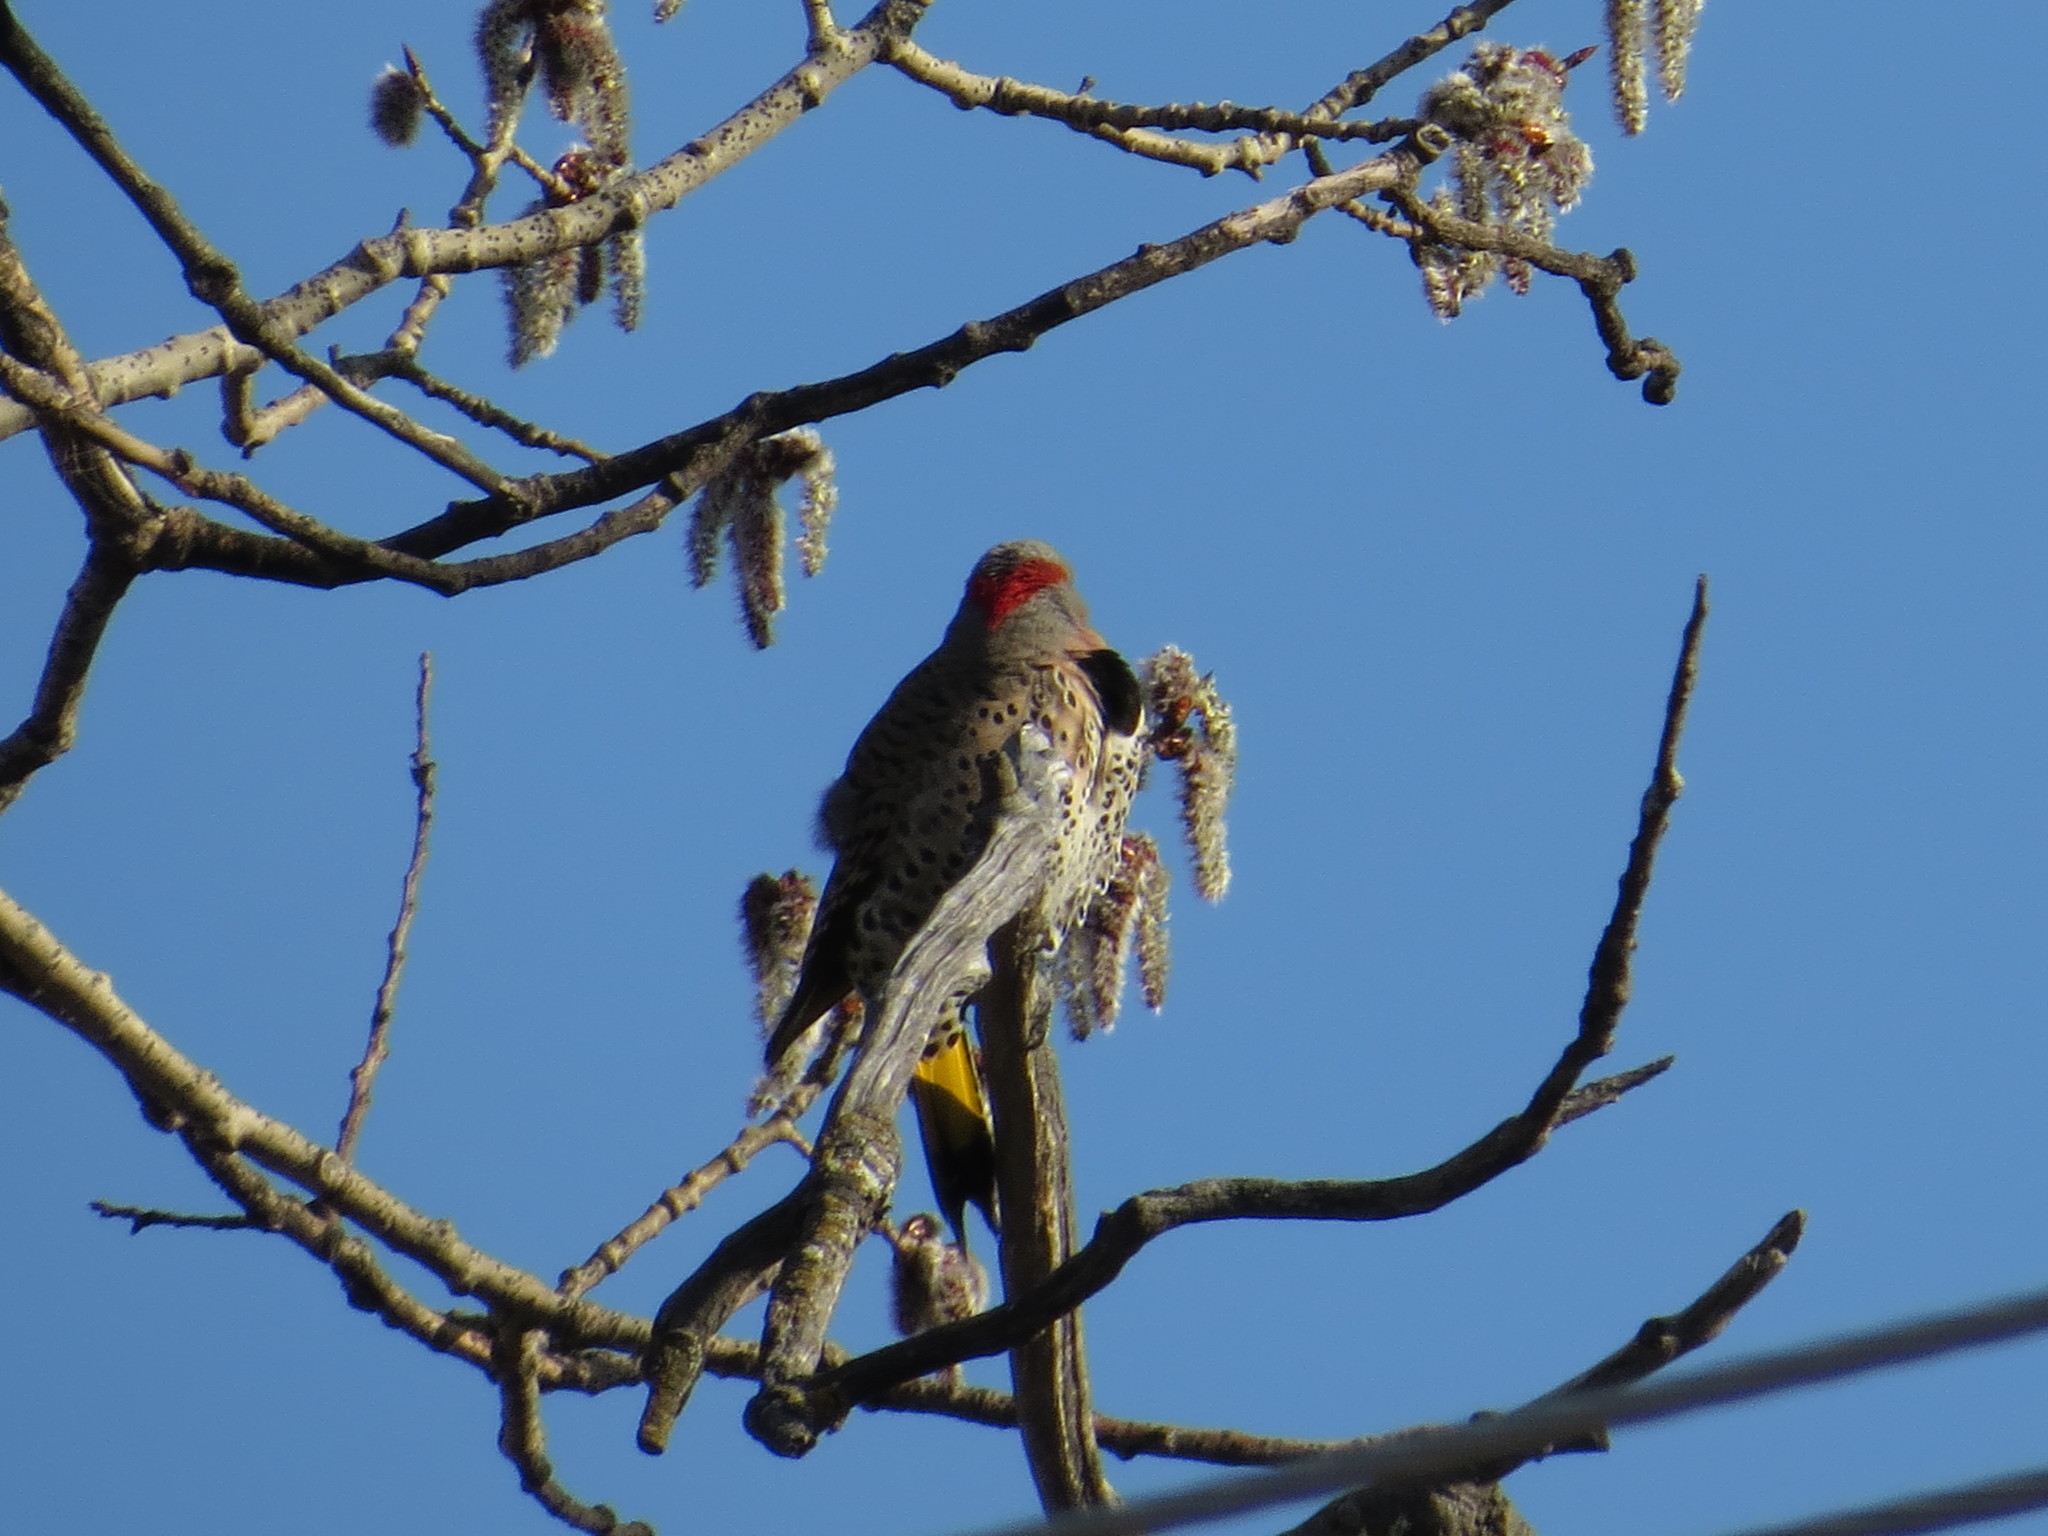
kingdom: Animalia
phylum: Chordata
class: Aves
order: Piciformes
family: Picidae
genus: Colaptes
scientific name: Colaptes auratus
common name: Northern flicker
